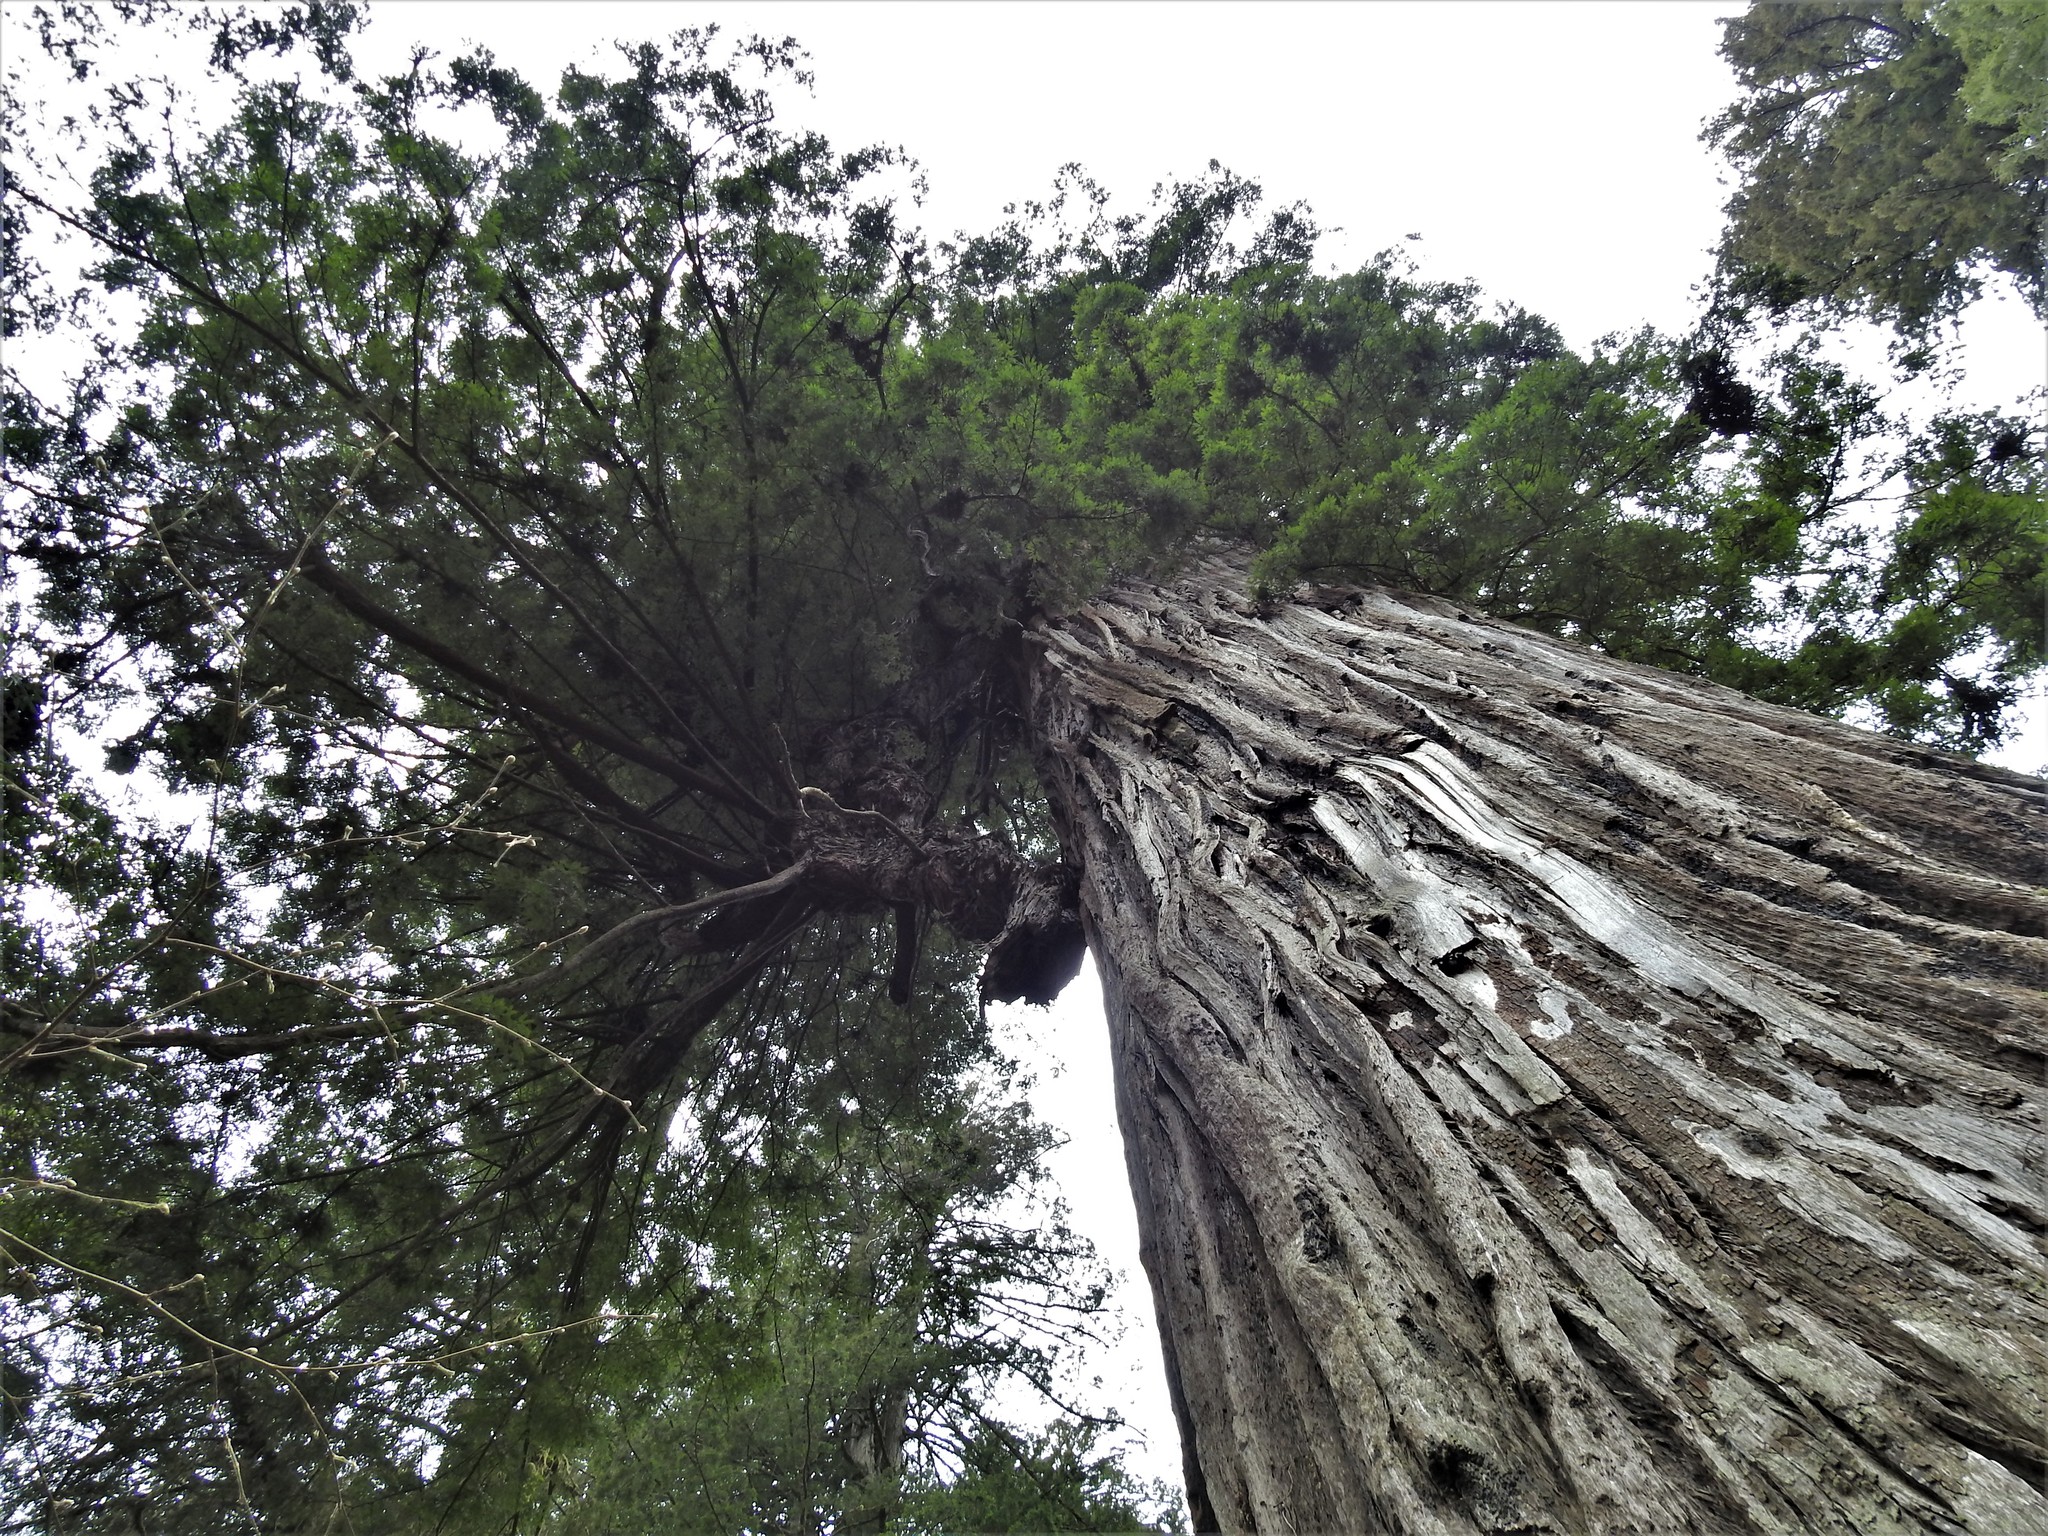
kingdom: Plantae
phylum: Tracheophyta
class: Pinopsida
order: Pinales
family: Cupressaceae
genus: Sequoia
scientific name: Sequoia sempervirens
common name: Coast redwood
